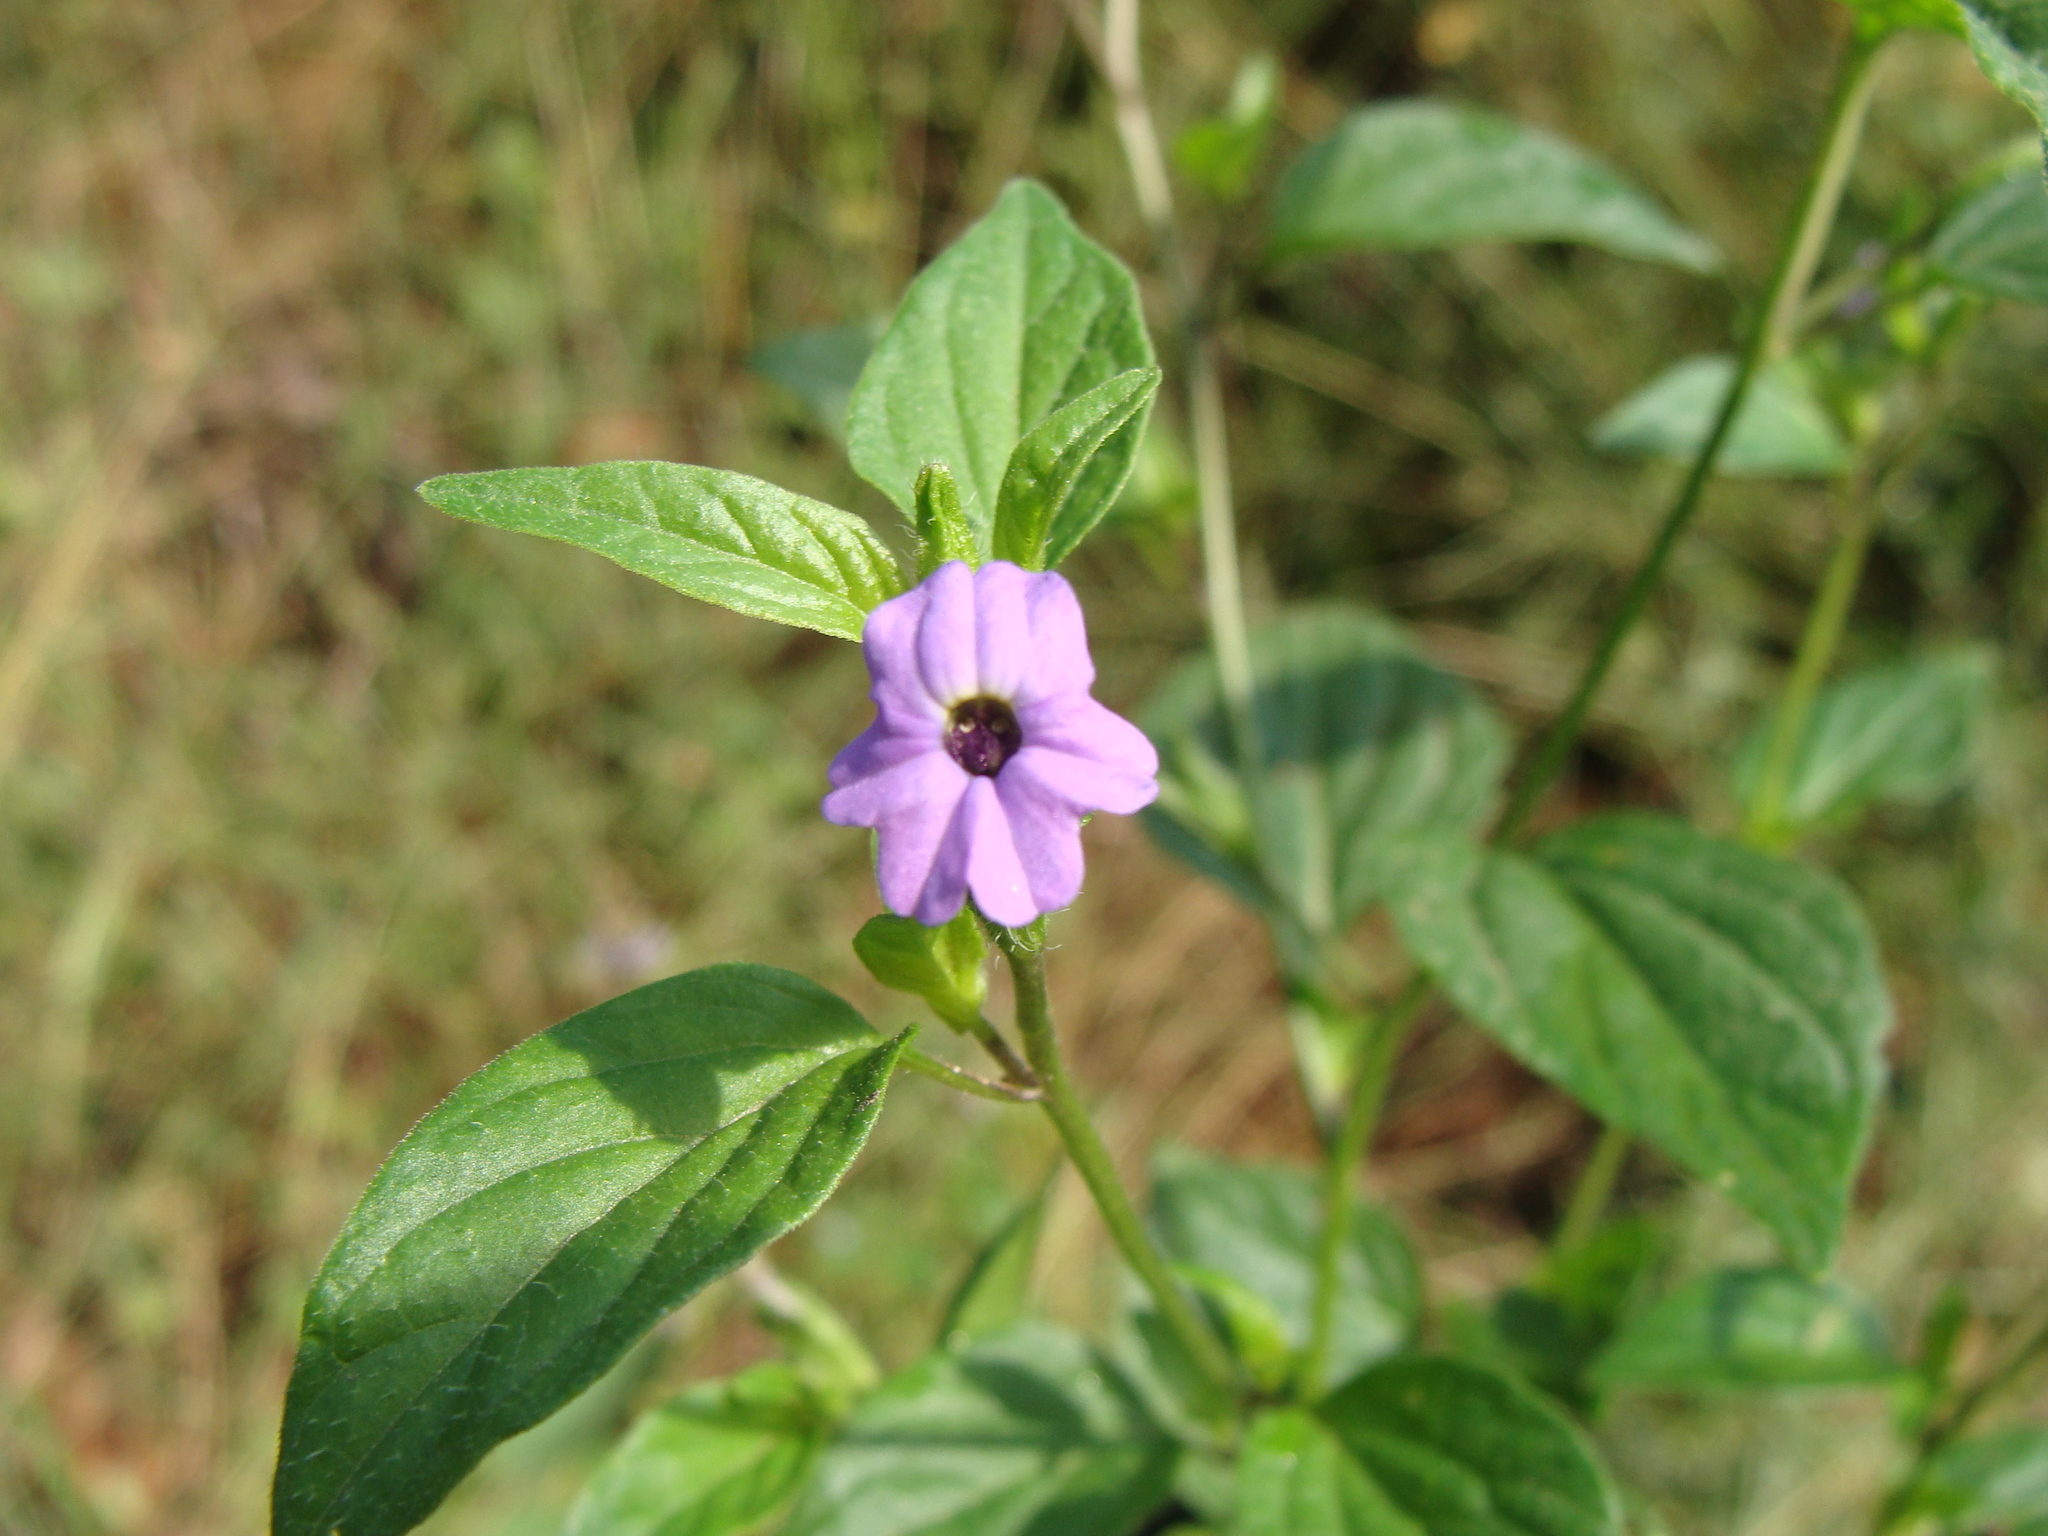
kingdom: Plantae
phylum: Tracheophyta
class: Magnoliopsida
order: Solanales
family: Solanaceae
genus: Browallia
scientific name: Browallia americana
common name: Jamaican forget-me-not
